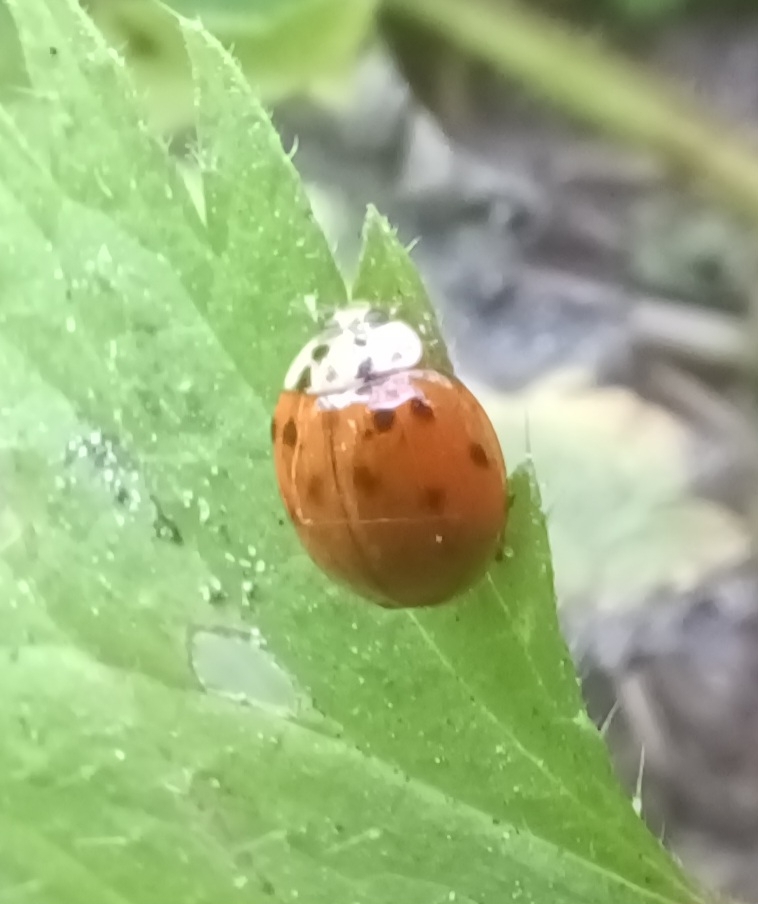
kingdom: Animalia
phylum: Arthropoda
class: Insecta
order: Coleoptera
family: Coccinellidae
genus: Harmonia
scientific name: Harmonia axyridis
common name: Harlequin ladybird
